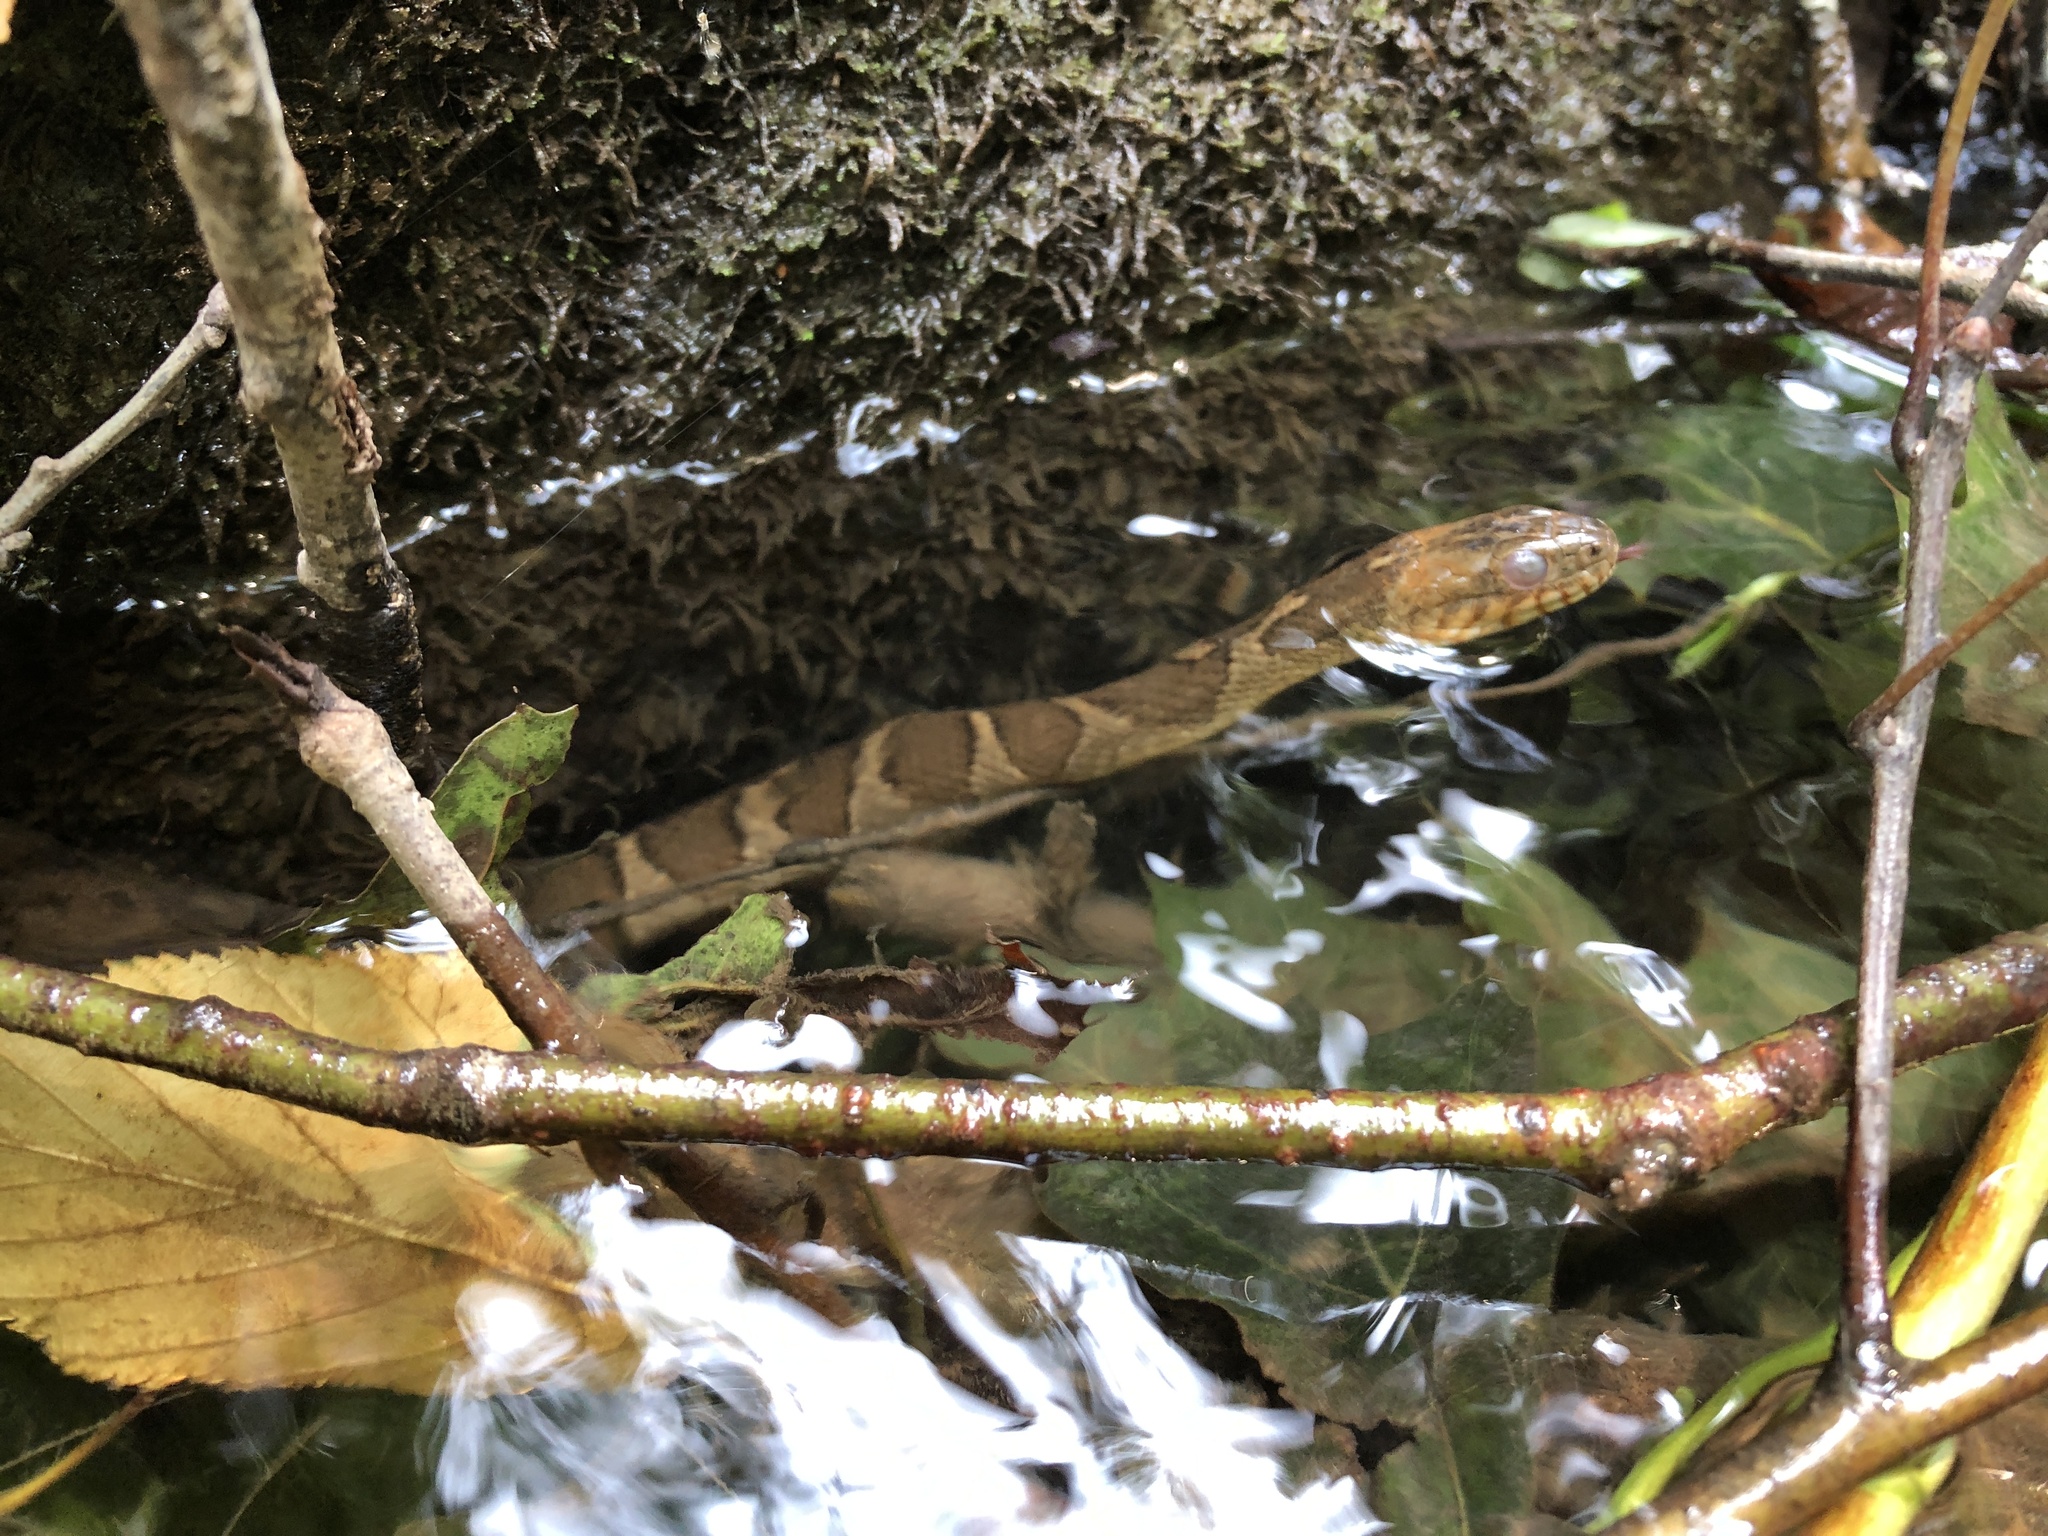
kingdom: Animalia
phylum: Chordata
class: Squamata
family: Colubridae
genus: Nerodia
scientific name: Nerodia sipedon
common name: Northern water snake
